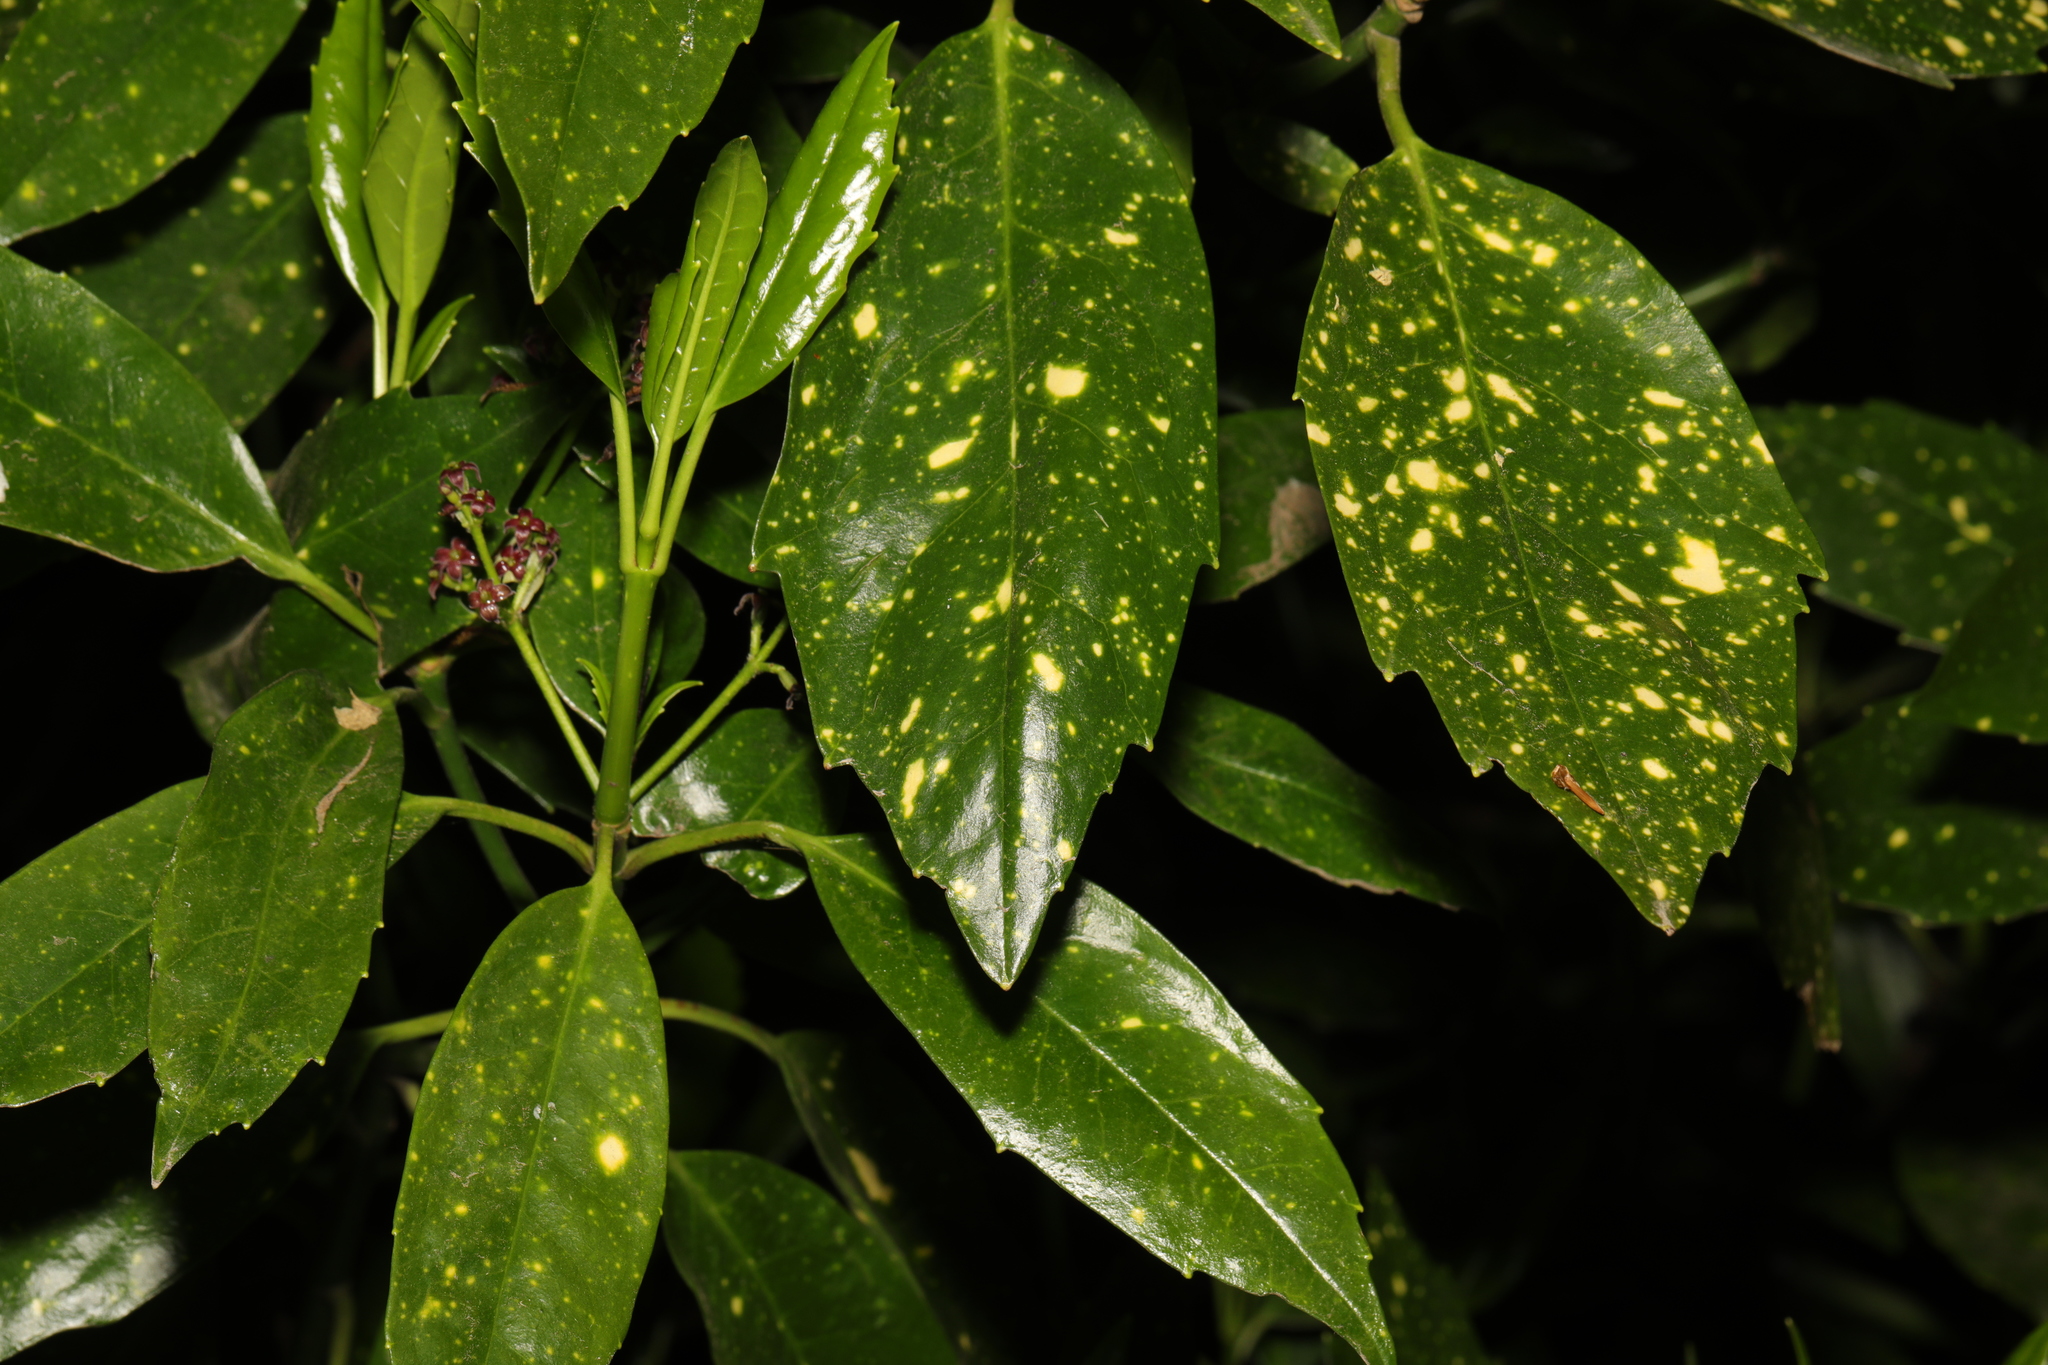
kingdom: Plantae
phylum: Tracheophyta
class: Magnoliopsida
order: Garryales
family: Garryaceae
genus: Aucuba
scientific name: Aucuba japonica
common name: Spotted-laurel
